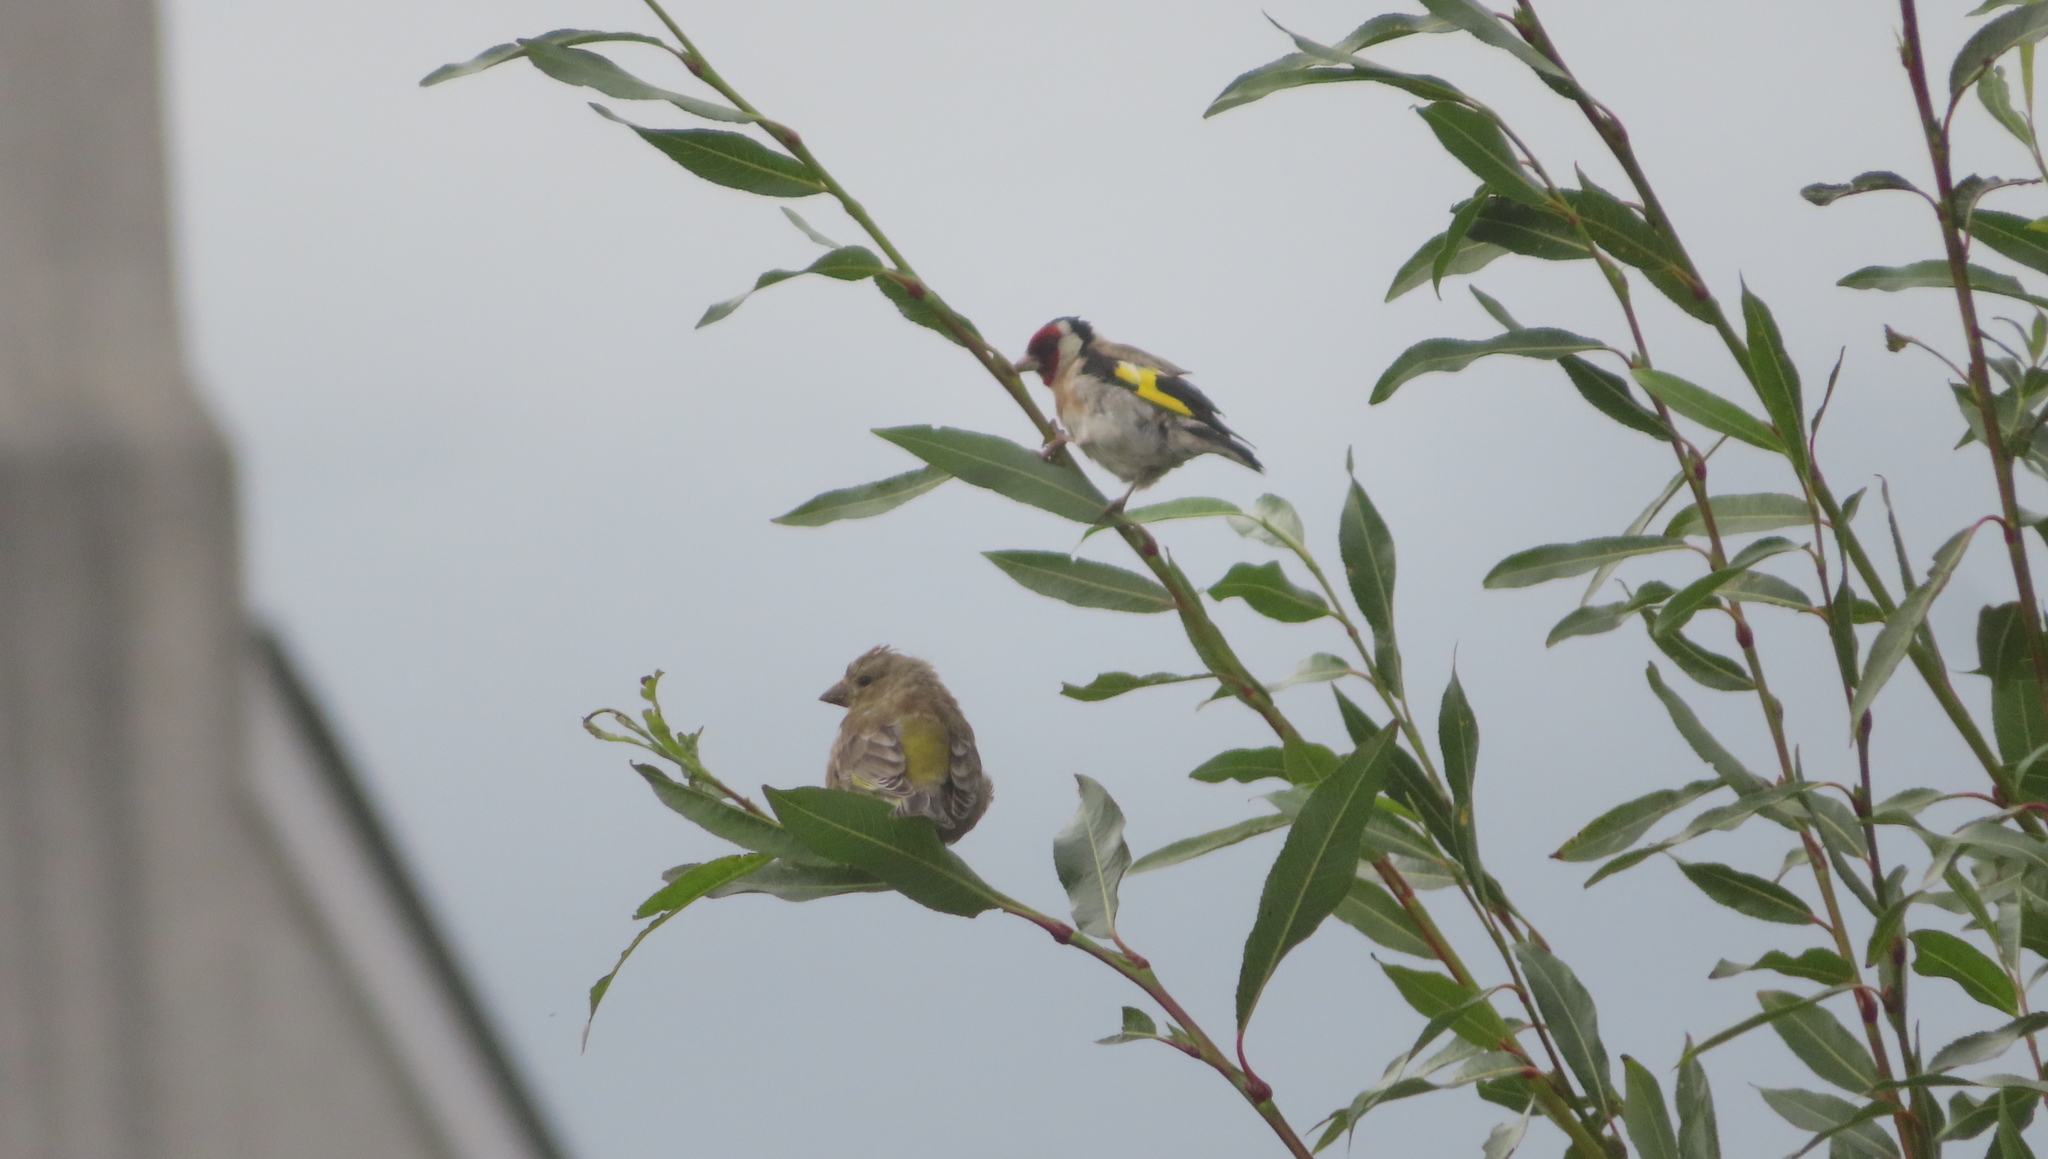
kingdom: Plantae
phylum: Tracheophyta
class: Liliopsida
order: Poales
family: Poaceae
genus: Chloris
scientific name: Chloris chloris
